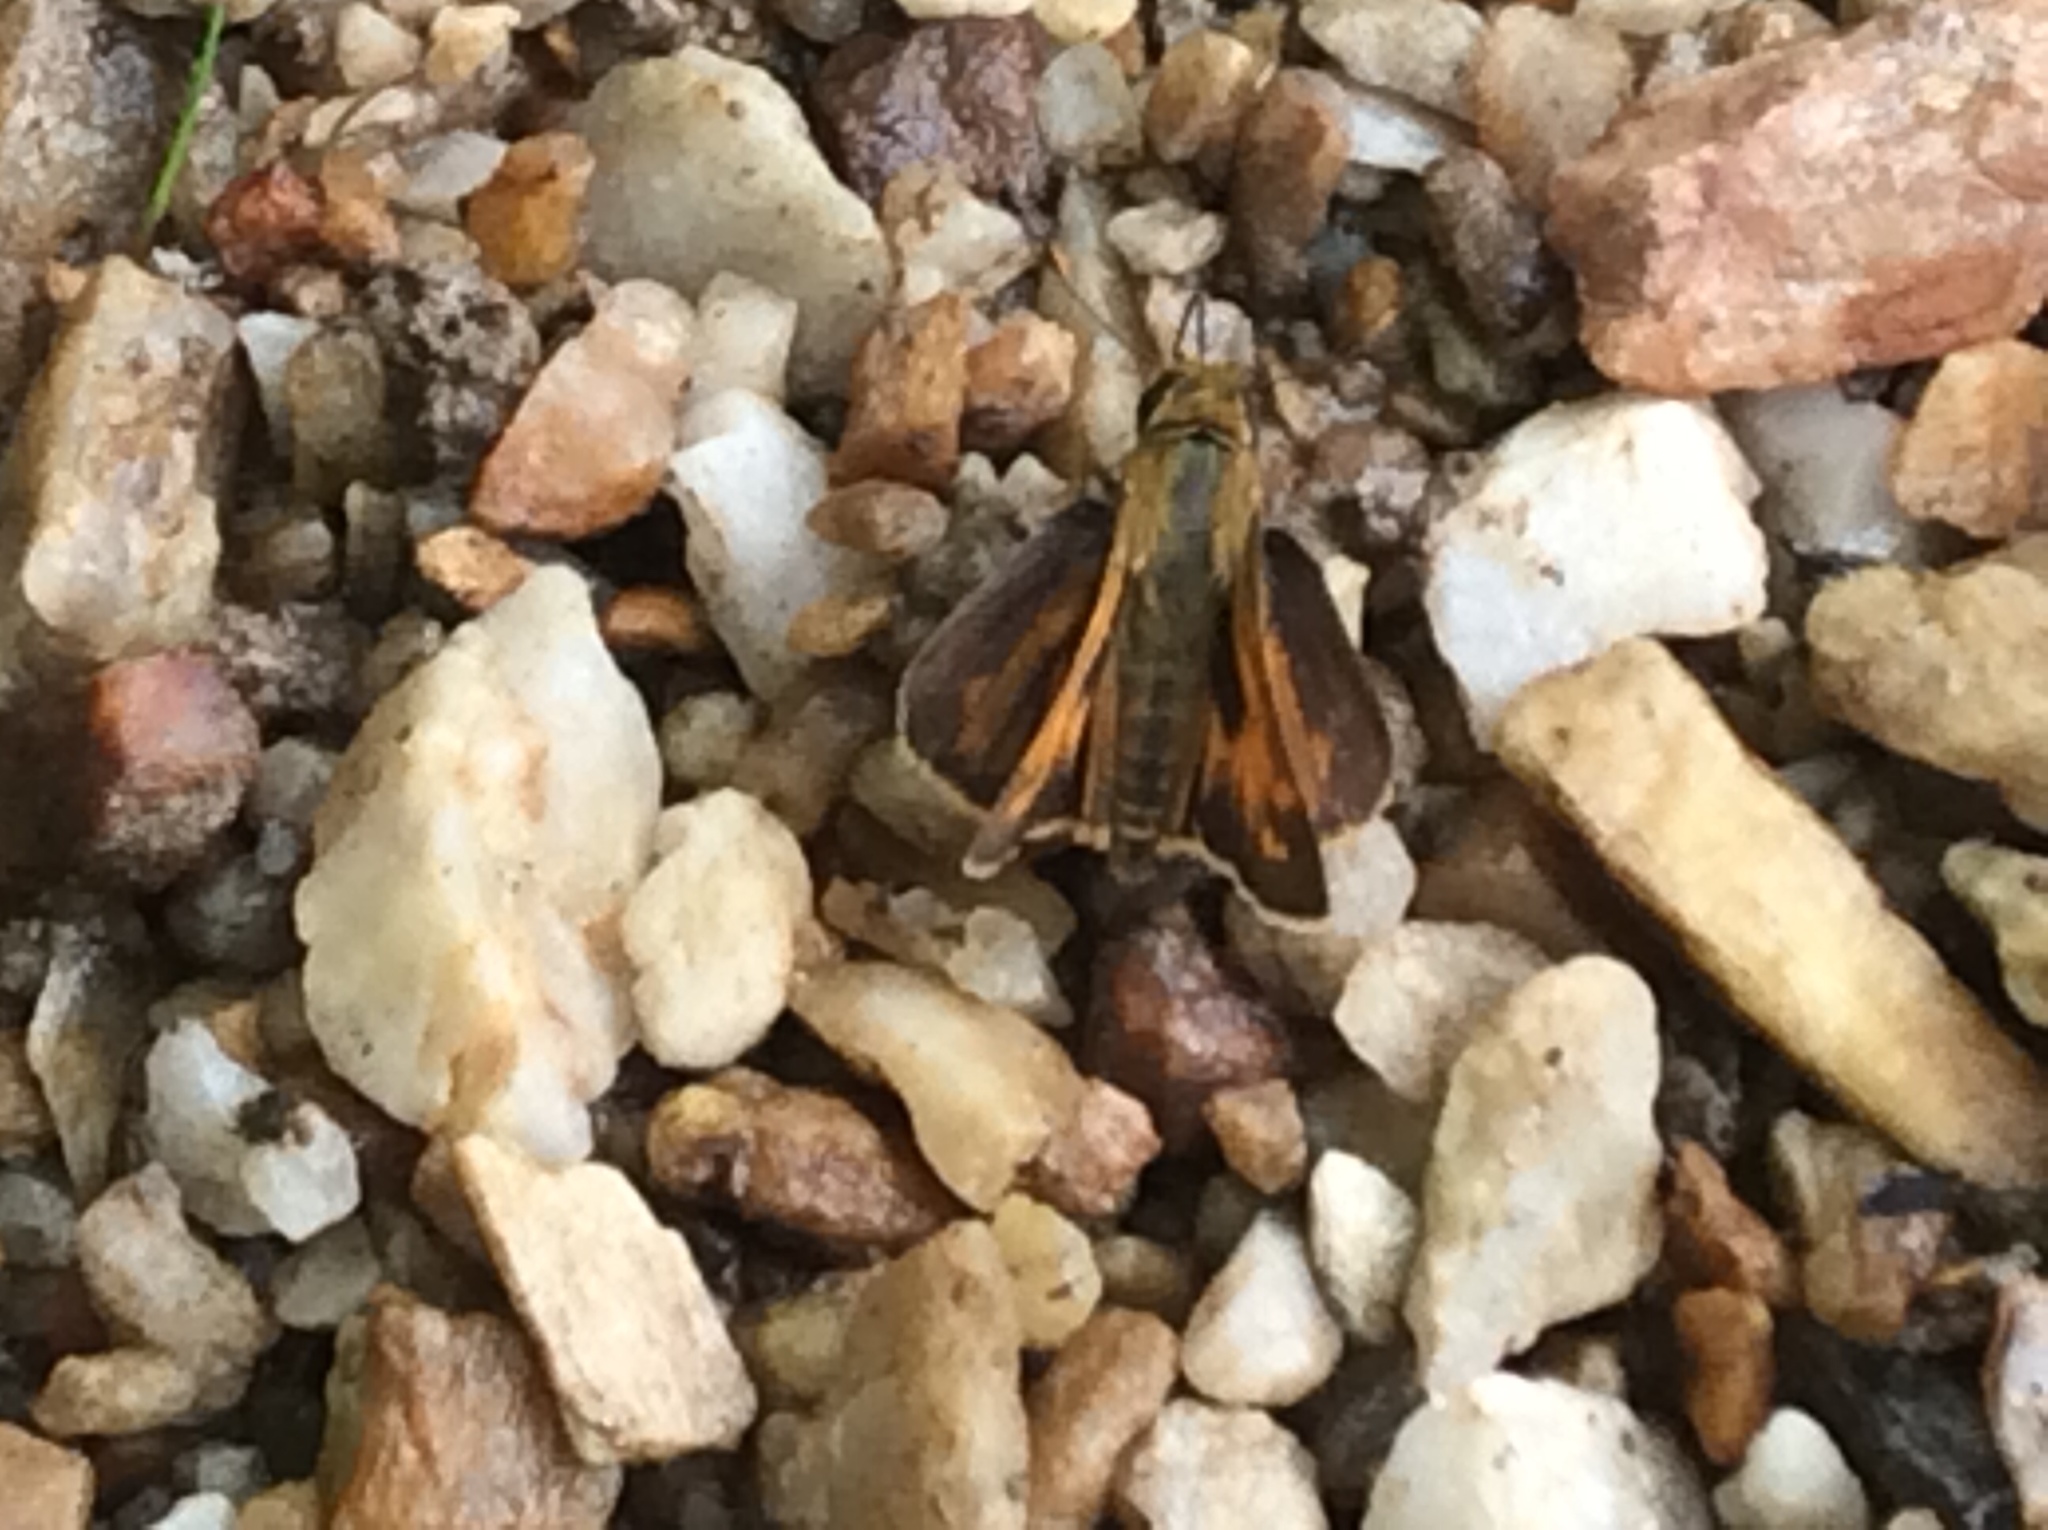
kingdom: Animalia
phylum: Arthropoda
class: Insecta
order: Lepidoptera
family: Hesperiidae
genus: Atalopedes
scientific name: Atalopedes
